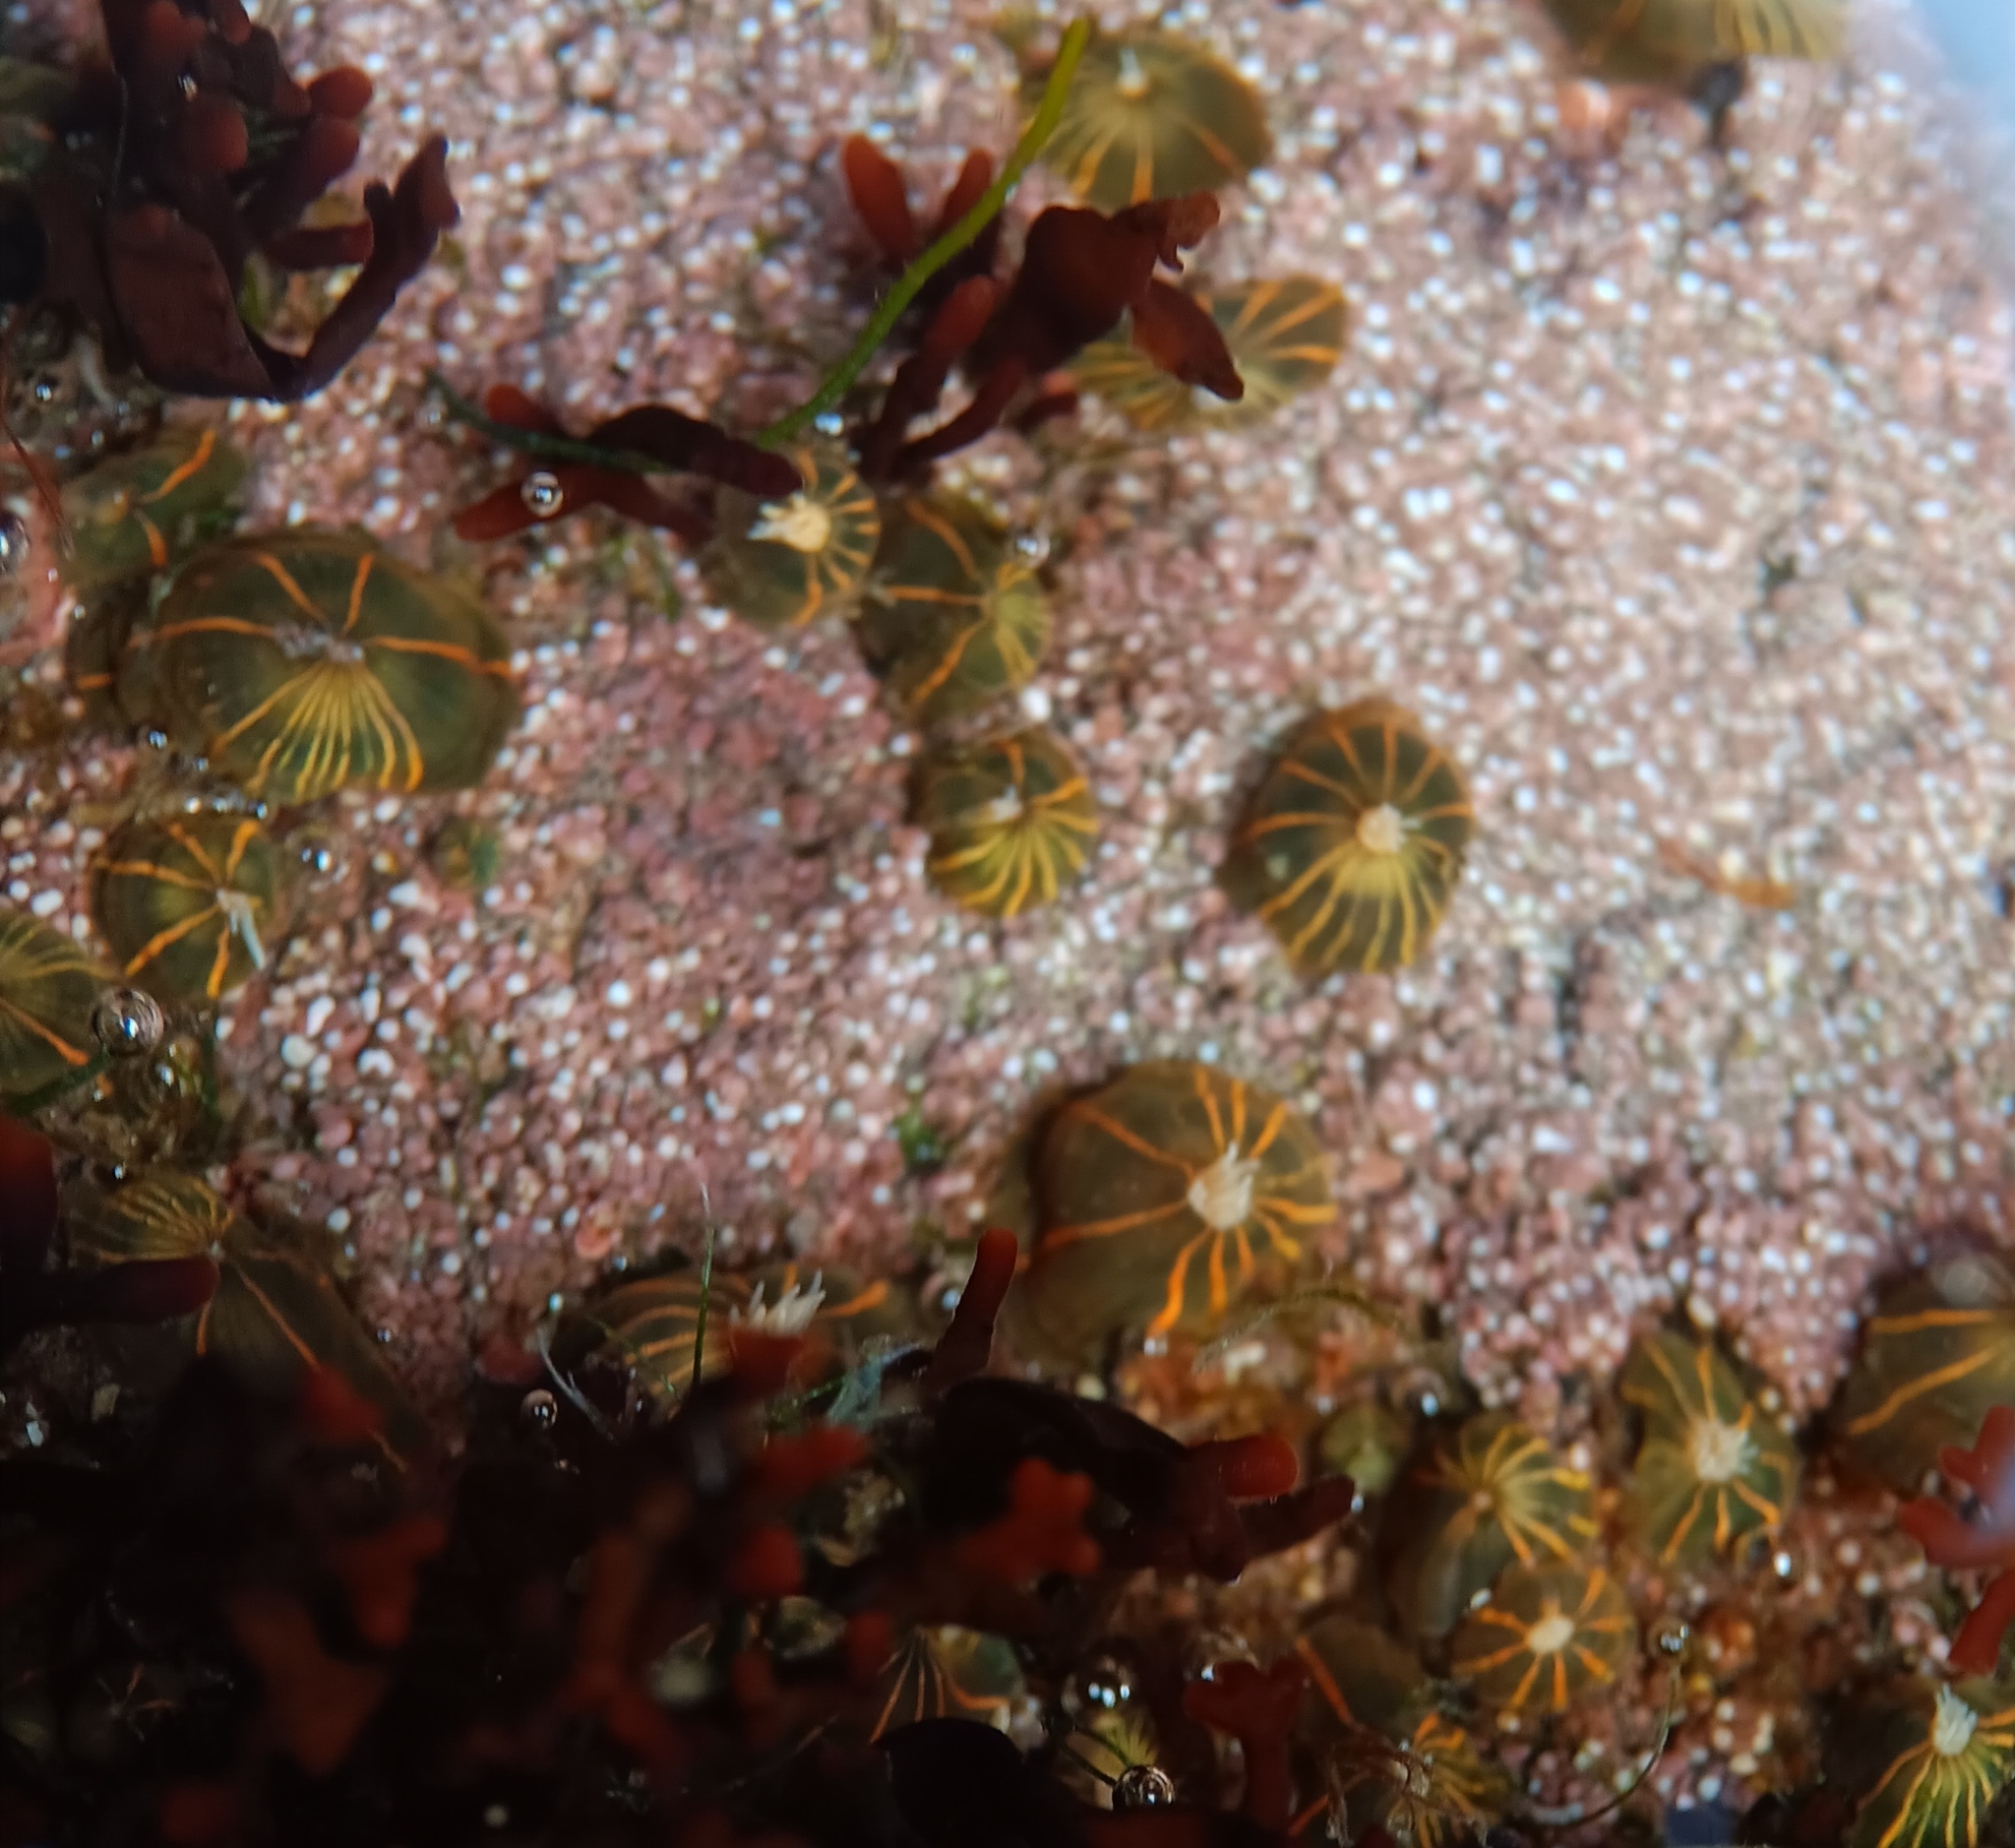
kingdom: Animalia
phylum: Cnidaria
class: Anthozoa
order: Actiniaria
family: Diadumenidae
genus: Diadumene
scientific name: Diadumene lineata
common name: Orange-striped anemone
